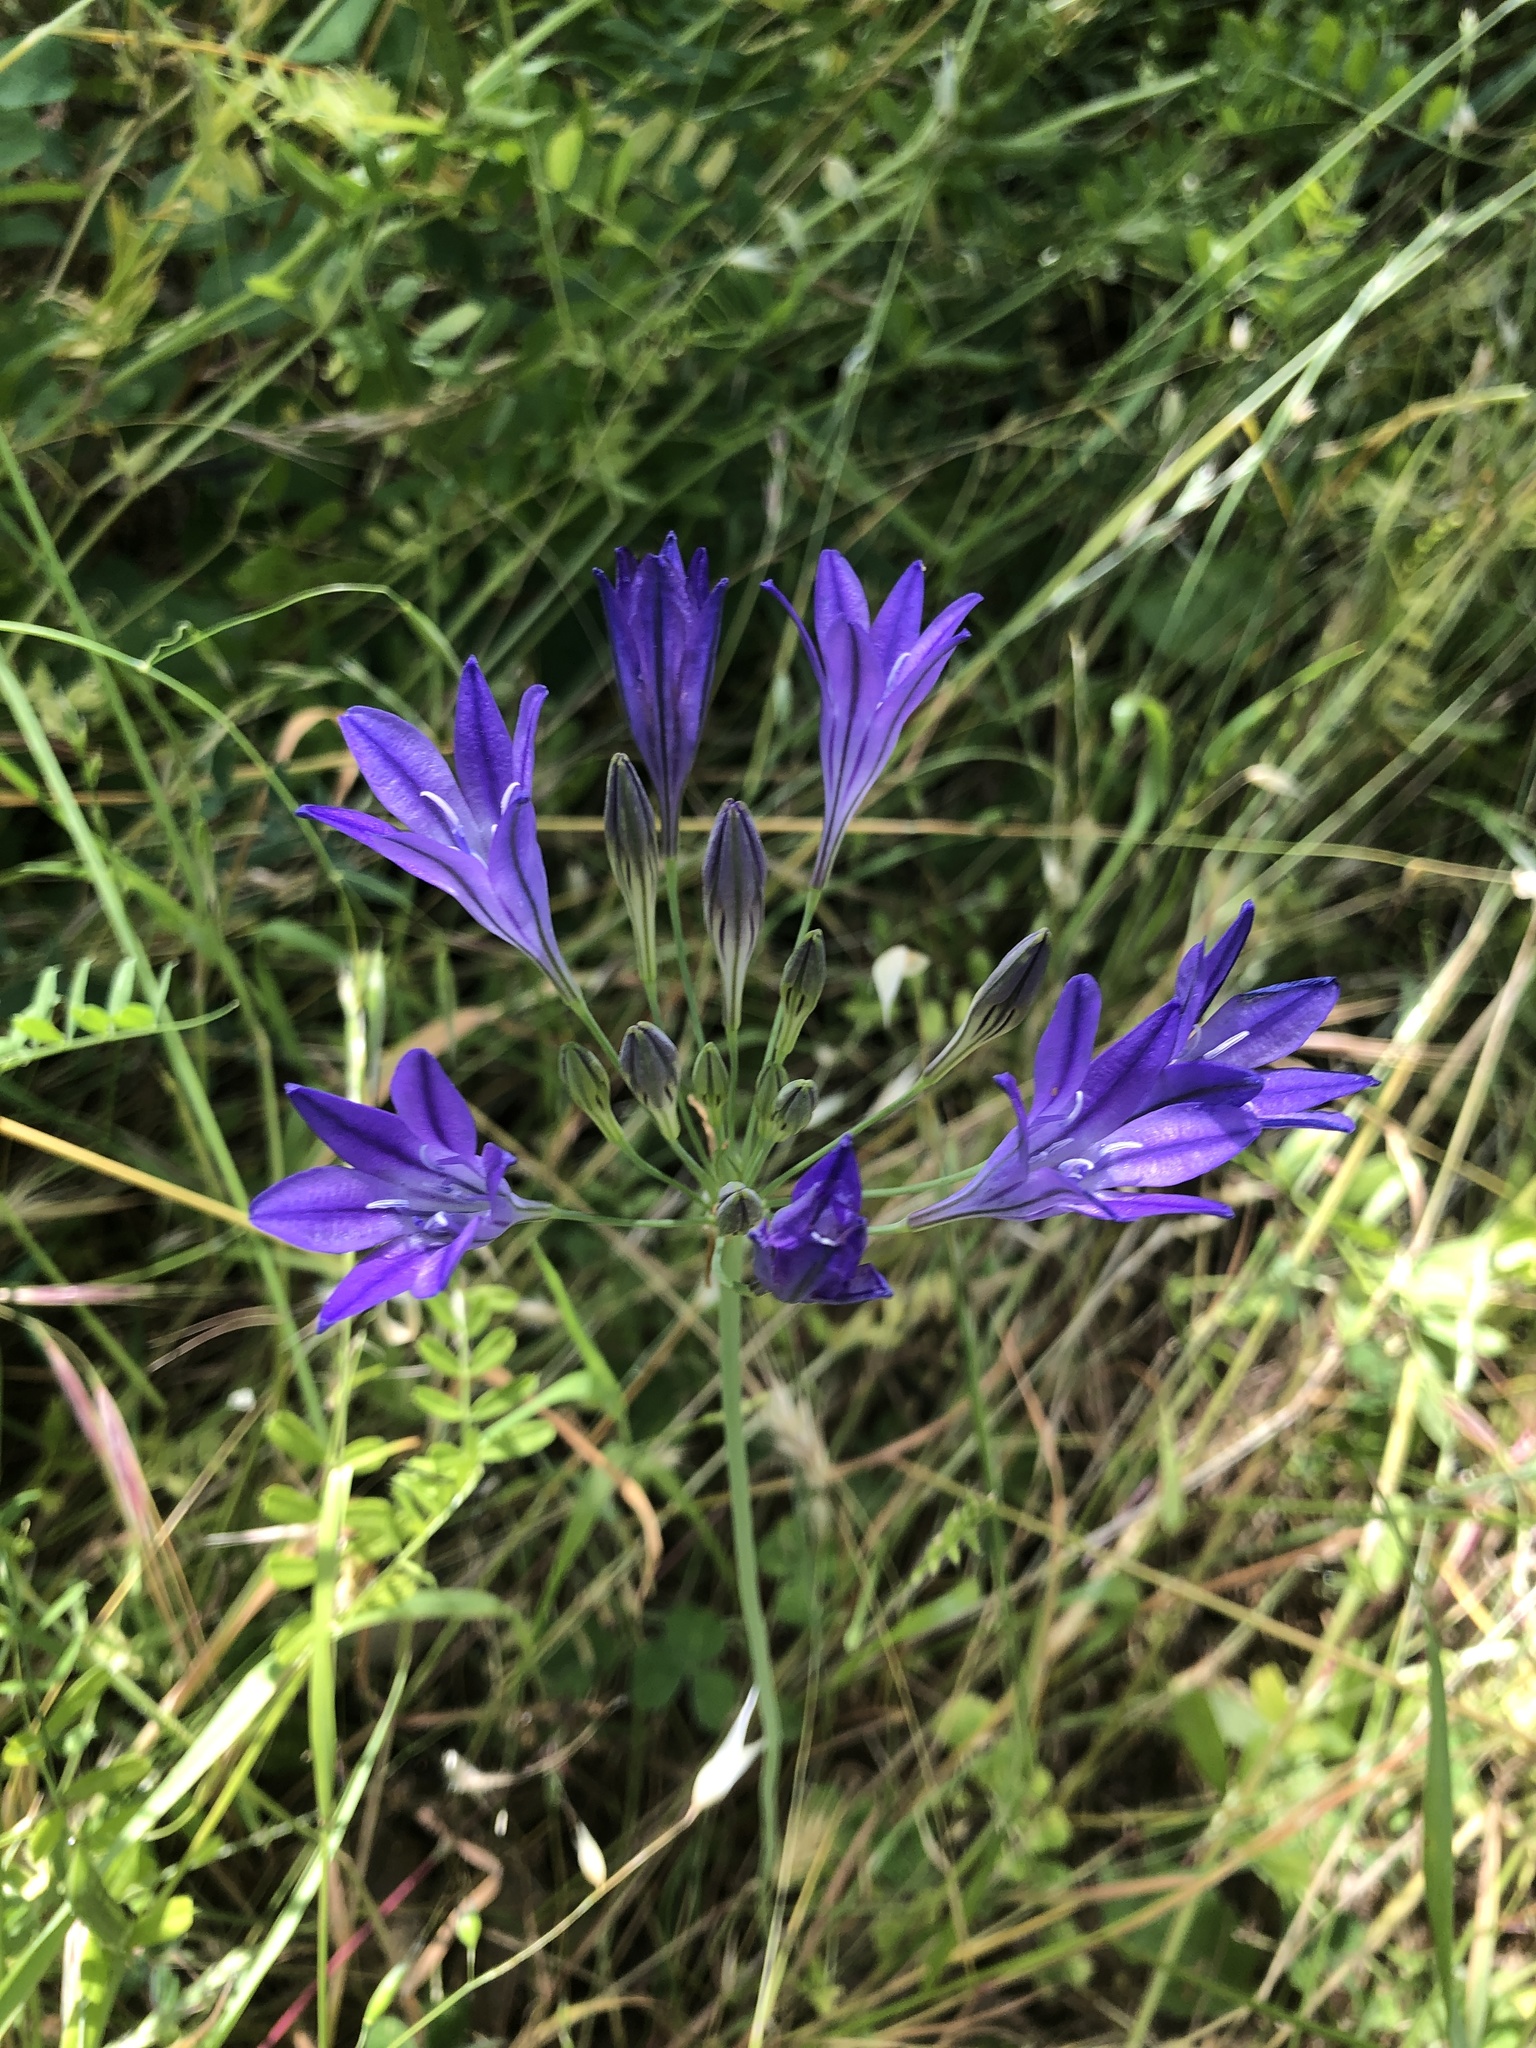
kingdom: Plantae
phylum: Tracheophyta
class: Liliopsida
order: Asparagales
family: Asparagaceae
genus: Triteleia
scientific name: Triteleia laxa
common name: Triplet-lily
